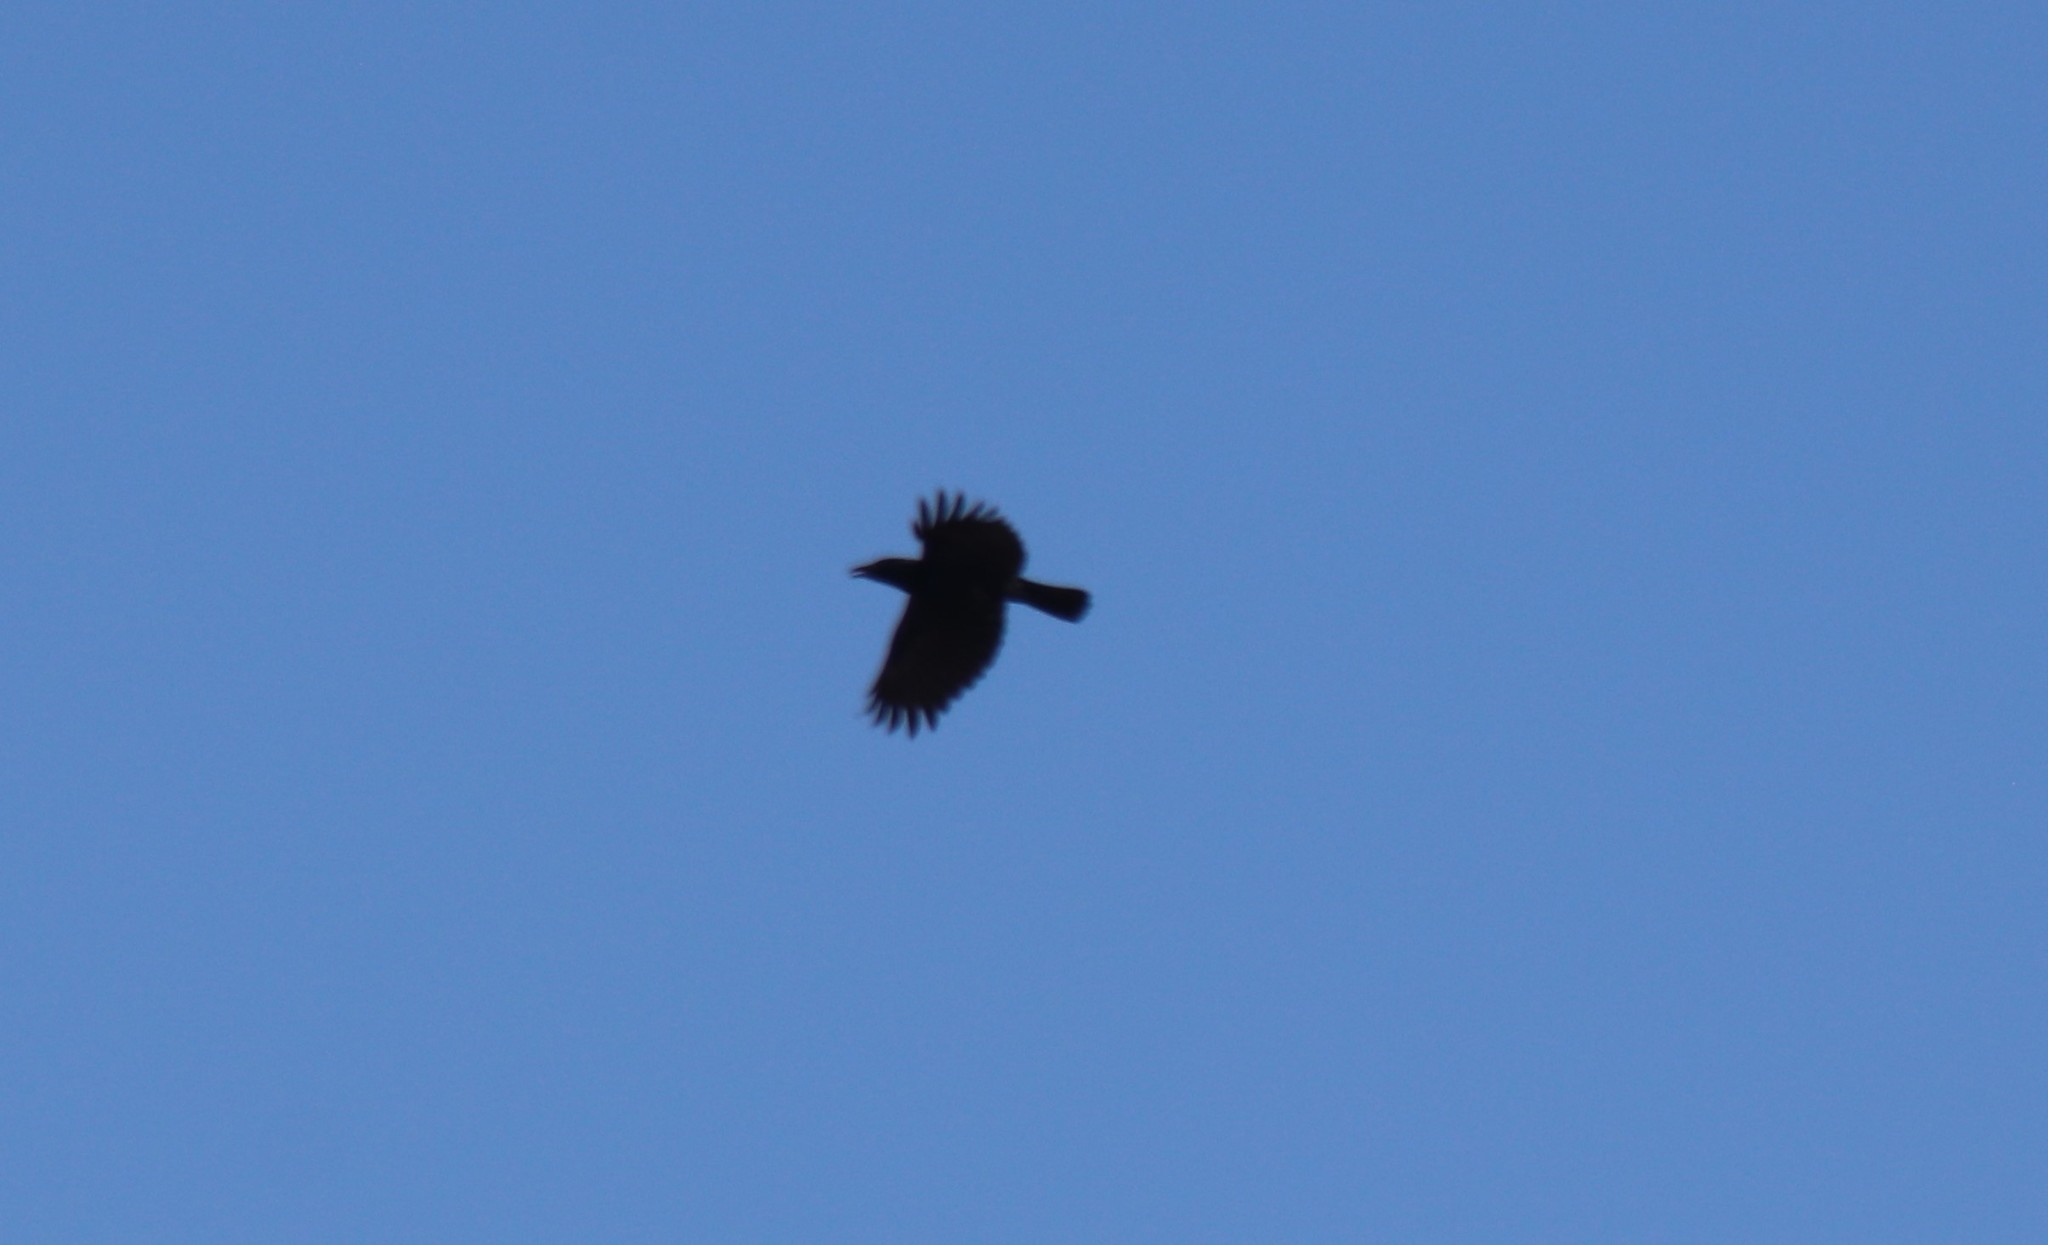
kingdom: Animalia
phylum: Chordata
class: Aves
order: Passeriformes
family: Corvidae
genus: Corvus
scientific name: Corvus brachyrhynchos
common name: American crow
